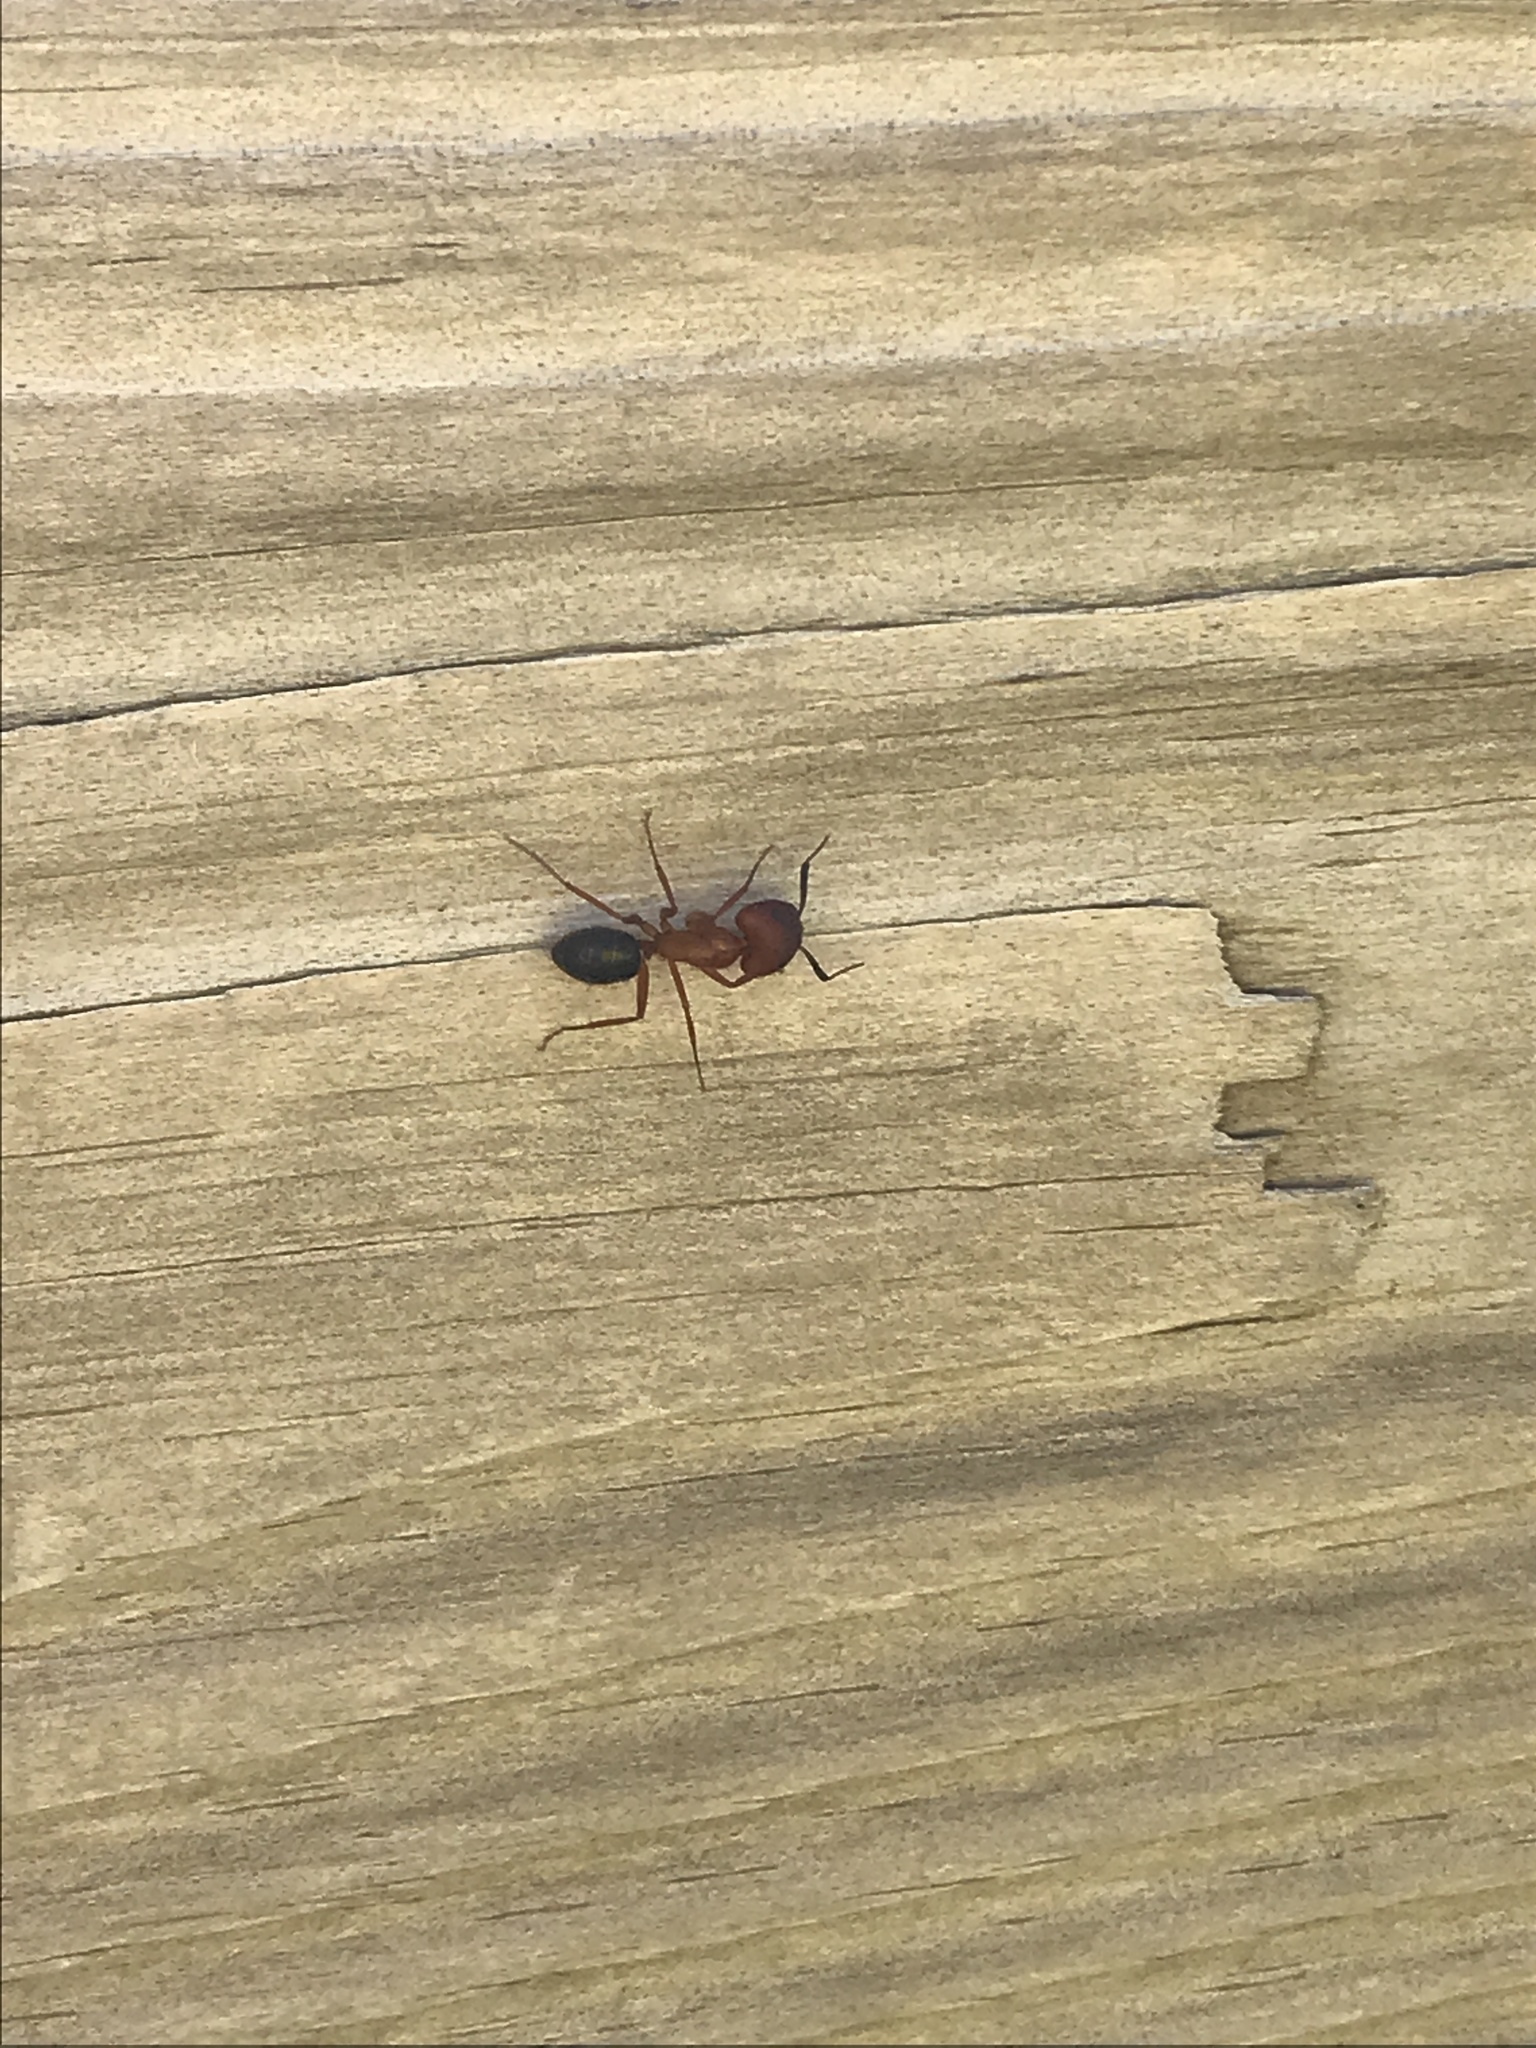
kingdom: Animalia
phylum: Arthropoda
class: Insecta
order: Hymenoptera
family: Formicidae
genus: Camponotus
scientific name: Camponotus floridanus
